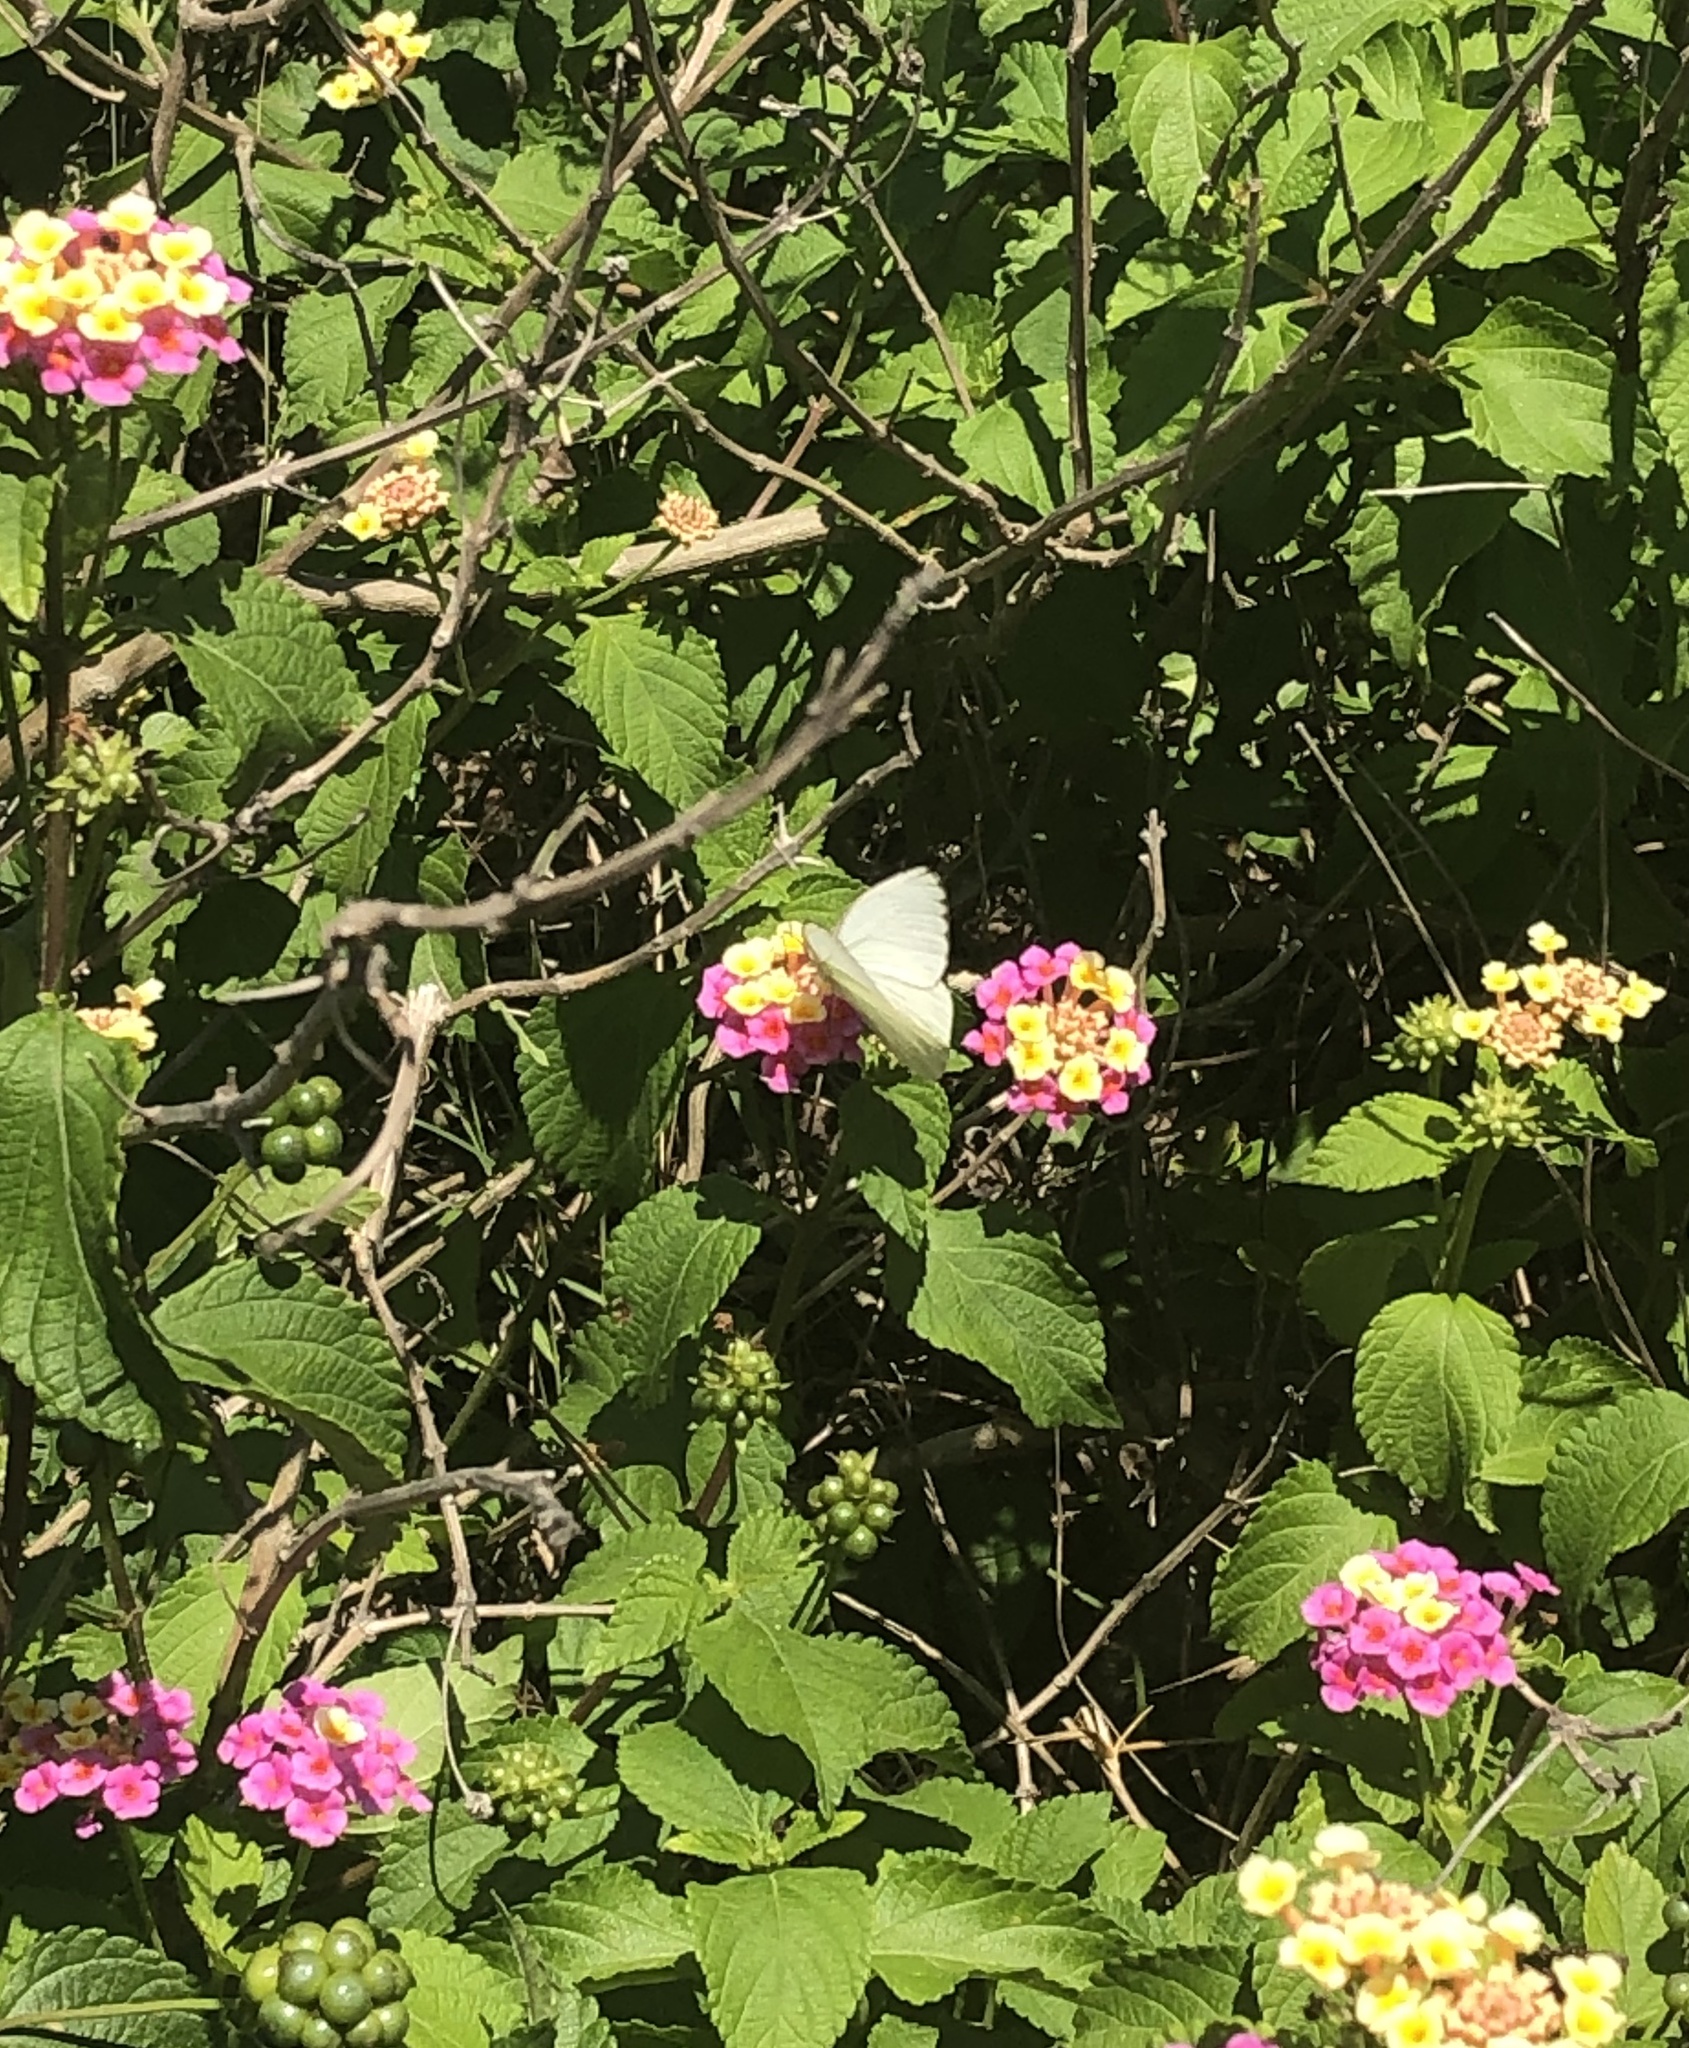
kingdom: Animalia
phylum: Arthropoda
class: Insecta
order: Lepidoptera
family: Pieridae
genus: Ascia
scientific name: Ascia monuste
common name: Great southern white
